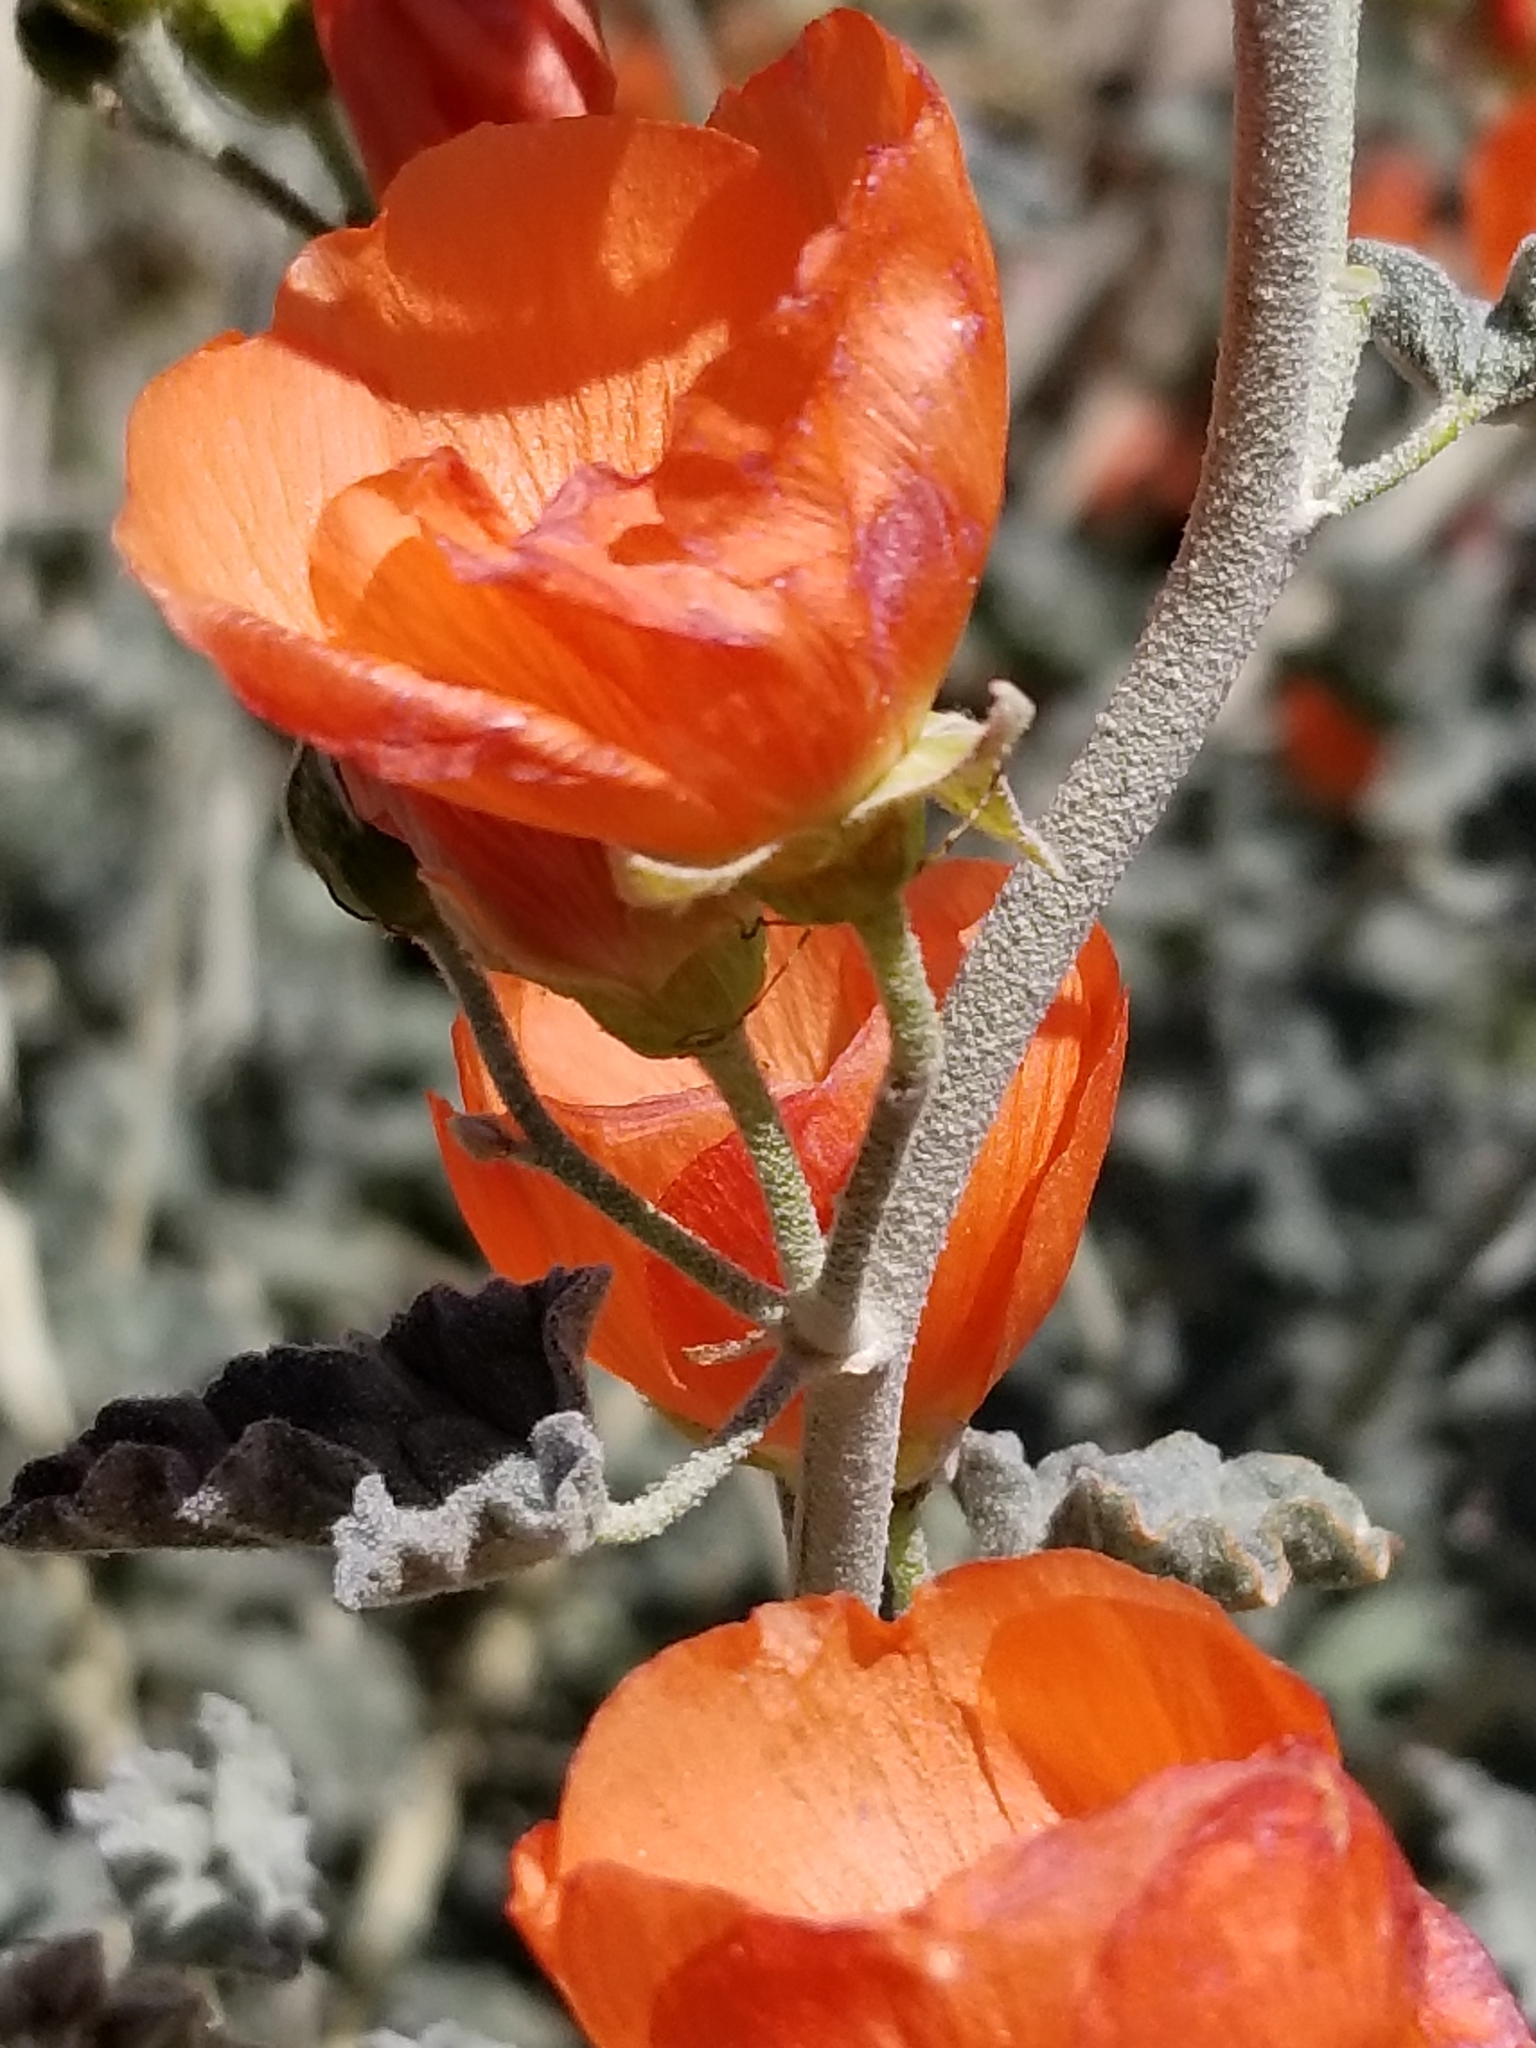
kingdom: Plantae
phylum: Tracheophyta
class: Magnoliopsida
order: Malvales
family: Malvaceae
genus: Sphaeralcea
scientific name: Sphaeralcea ambigua
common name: Apricot globe-mallow
